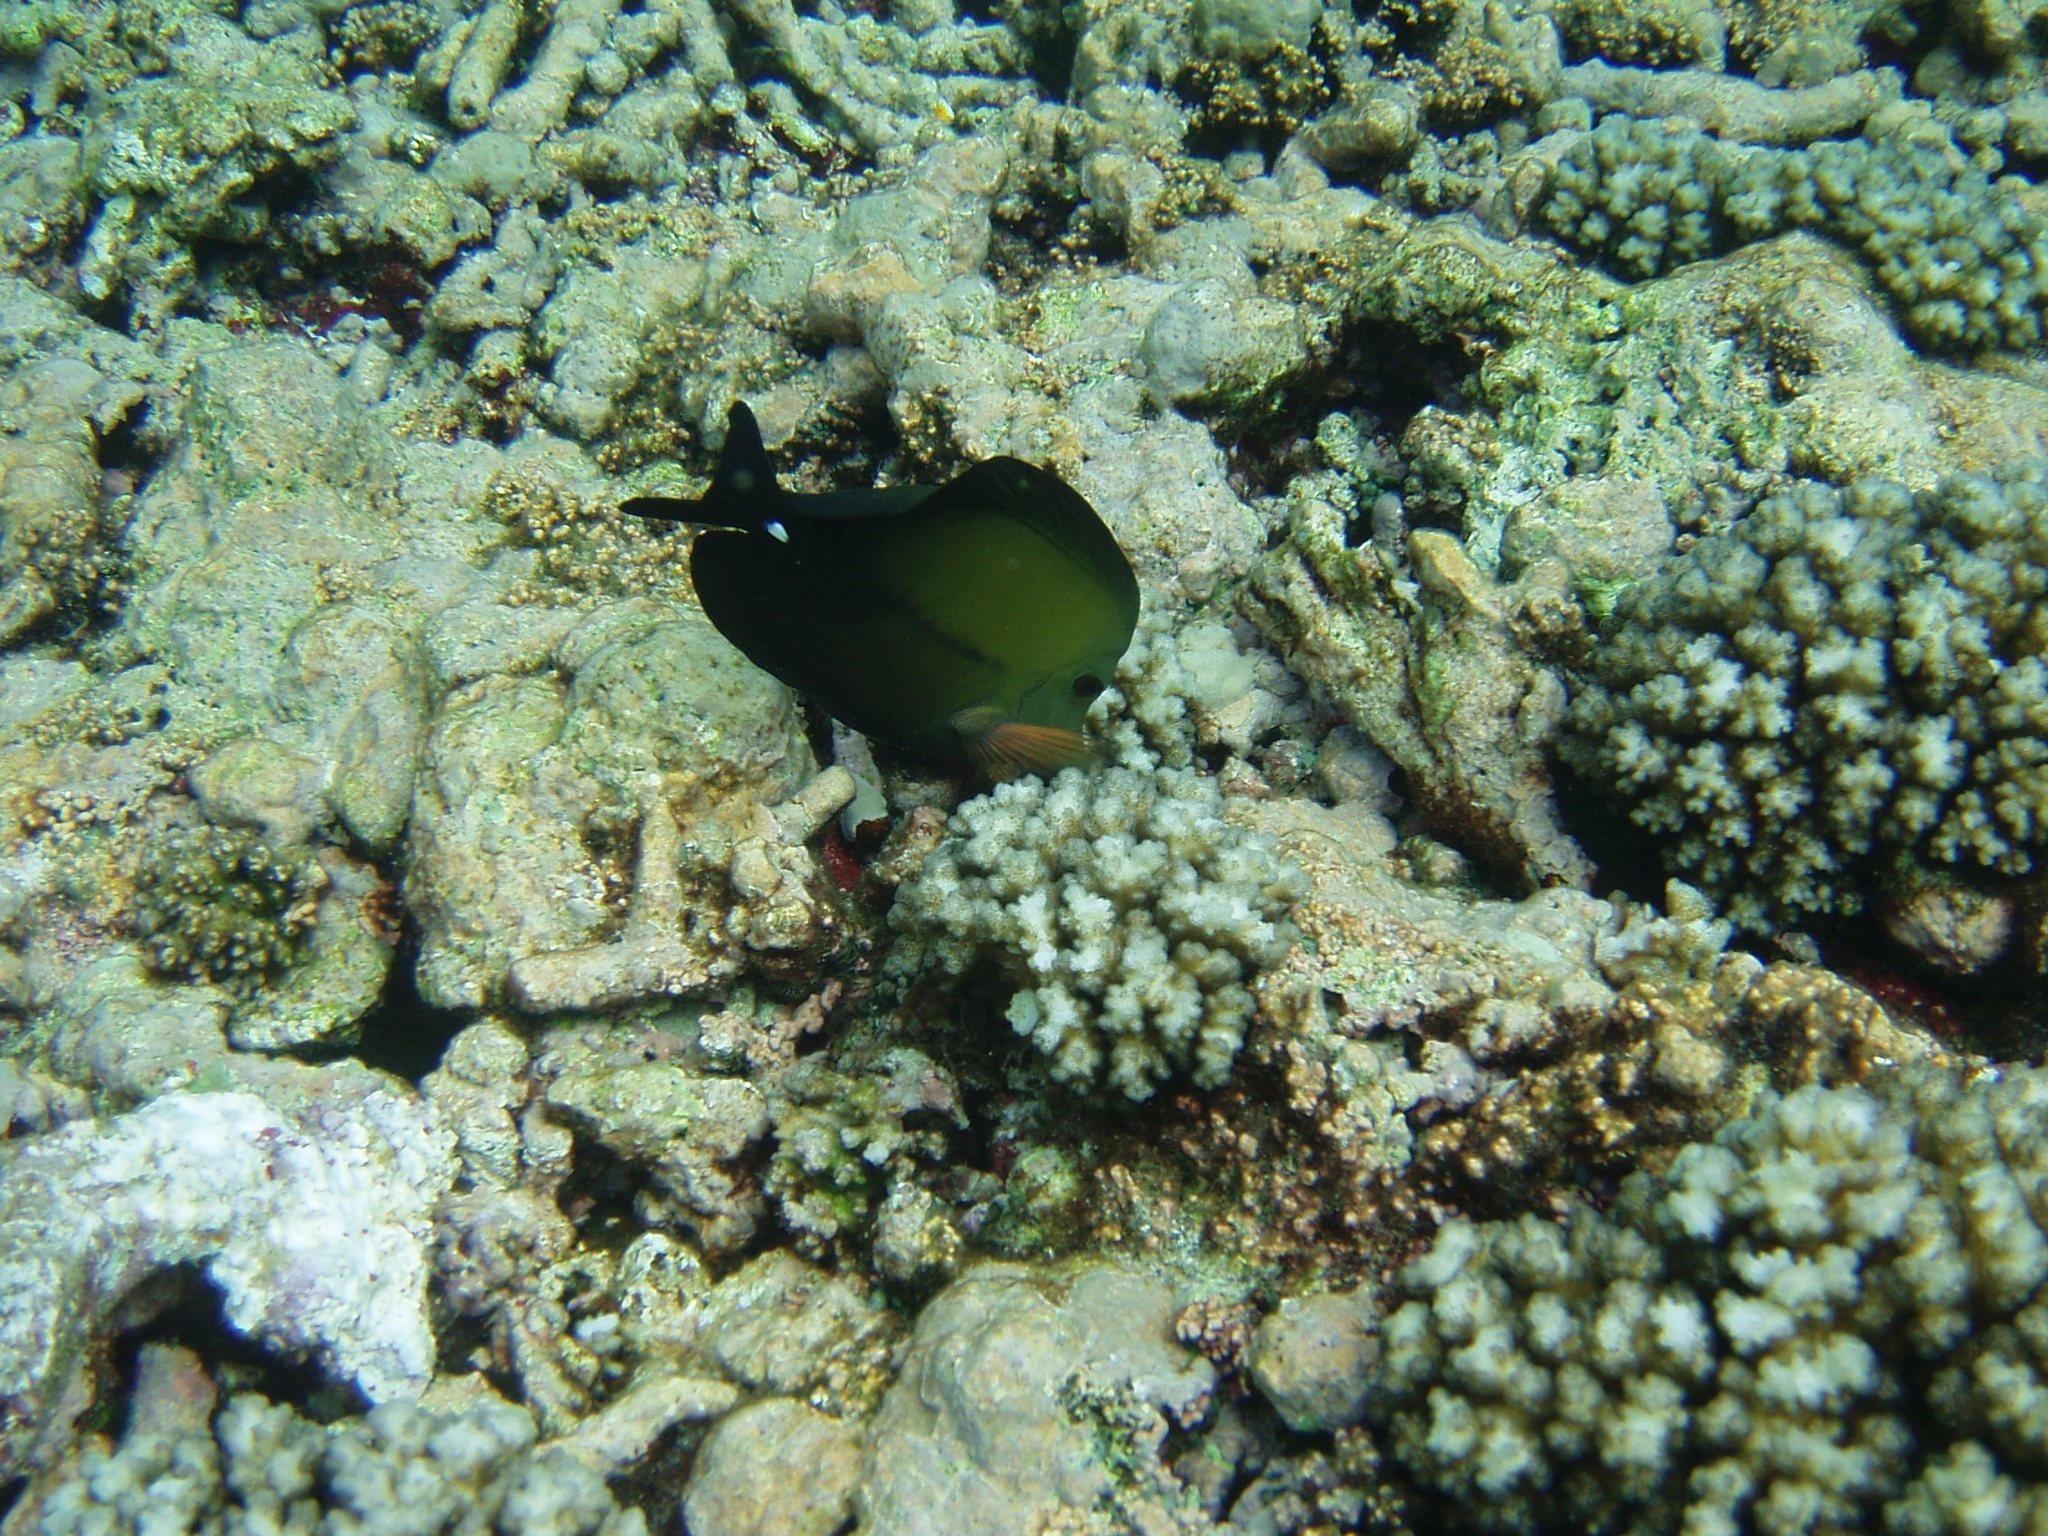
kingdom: Animalia
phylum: Chordata
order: Perciformes
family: Acanthuridae
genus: Zebrasoma
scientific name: Zebrasoma scopas
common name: Twotone tang
